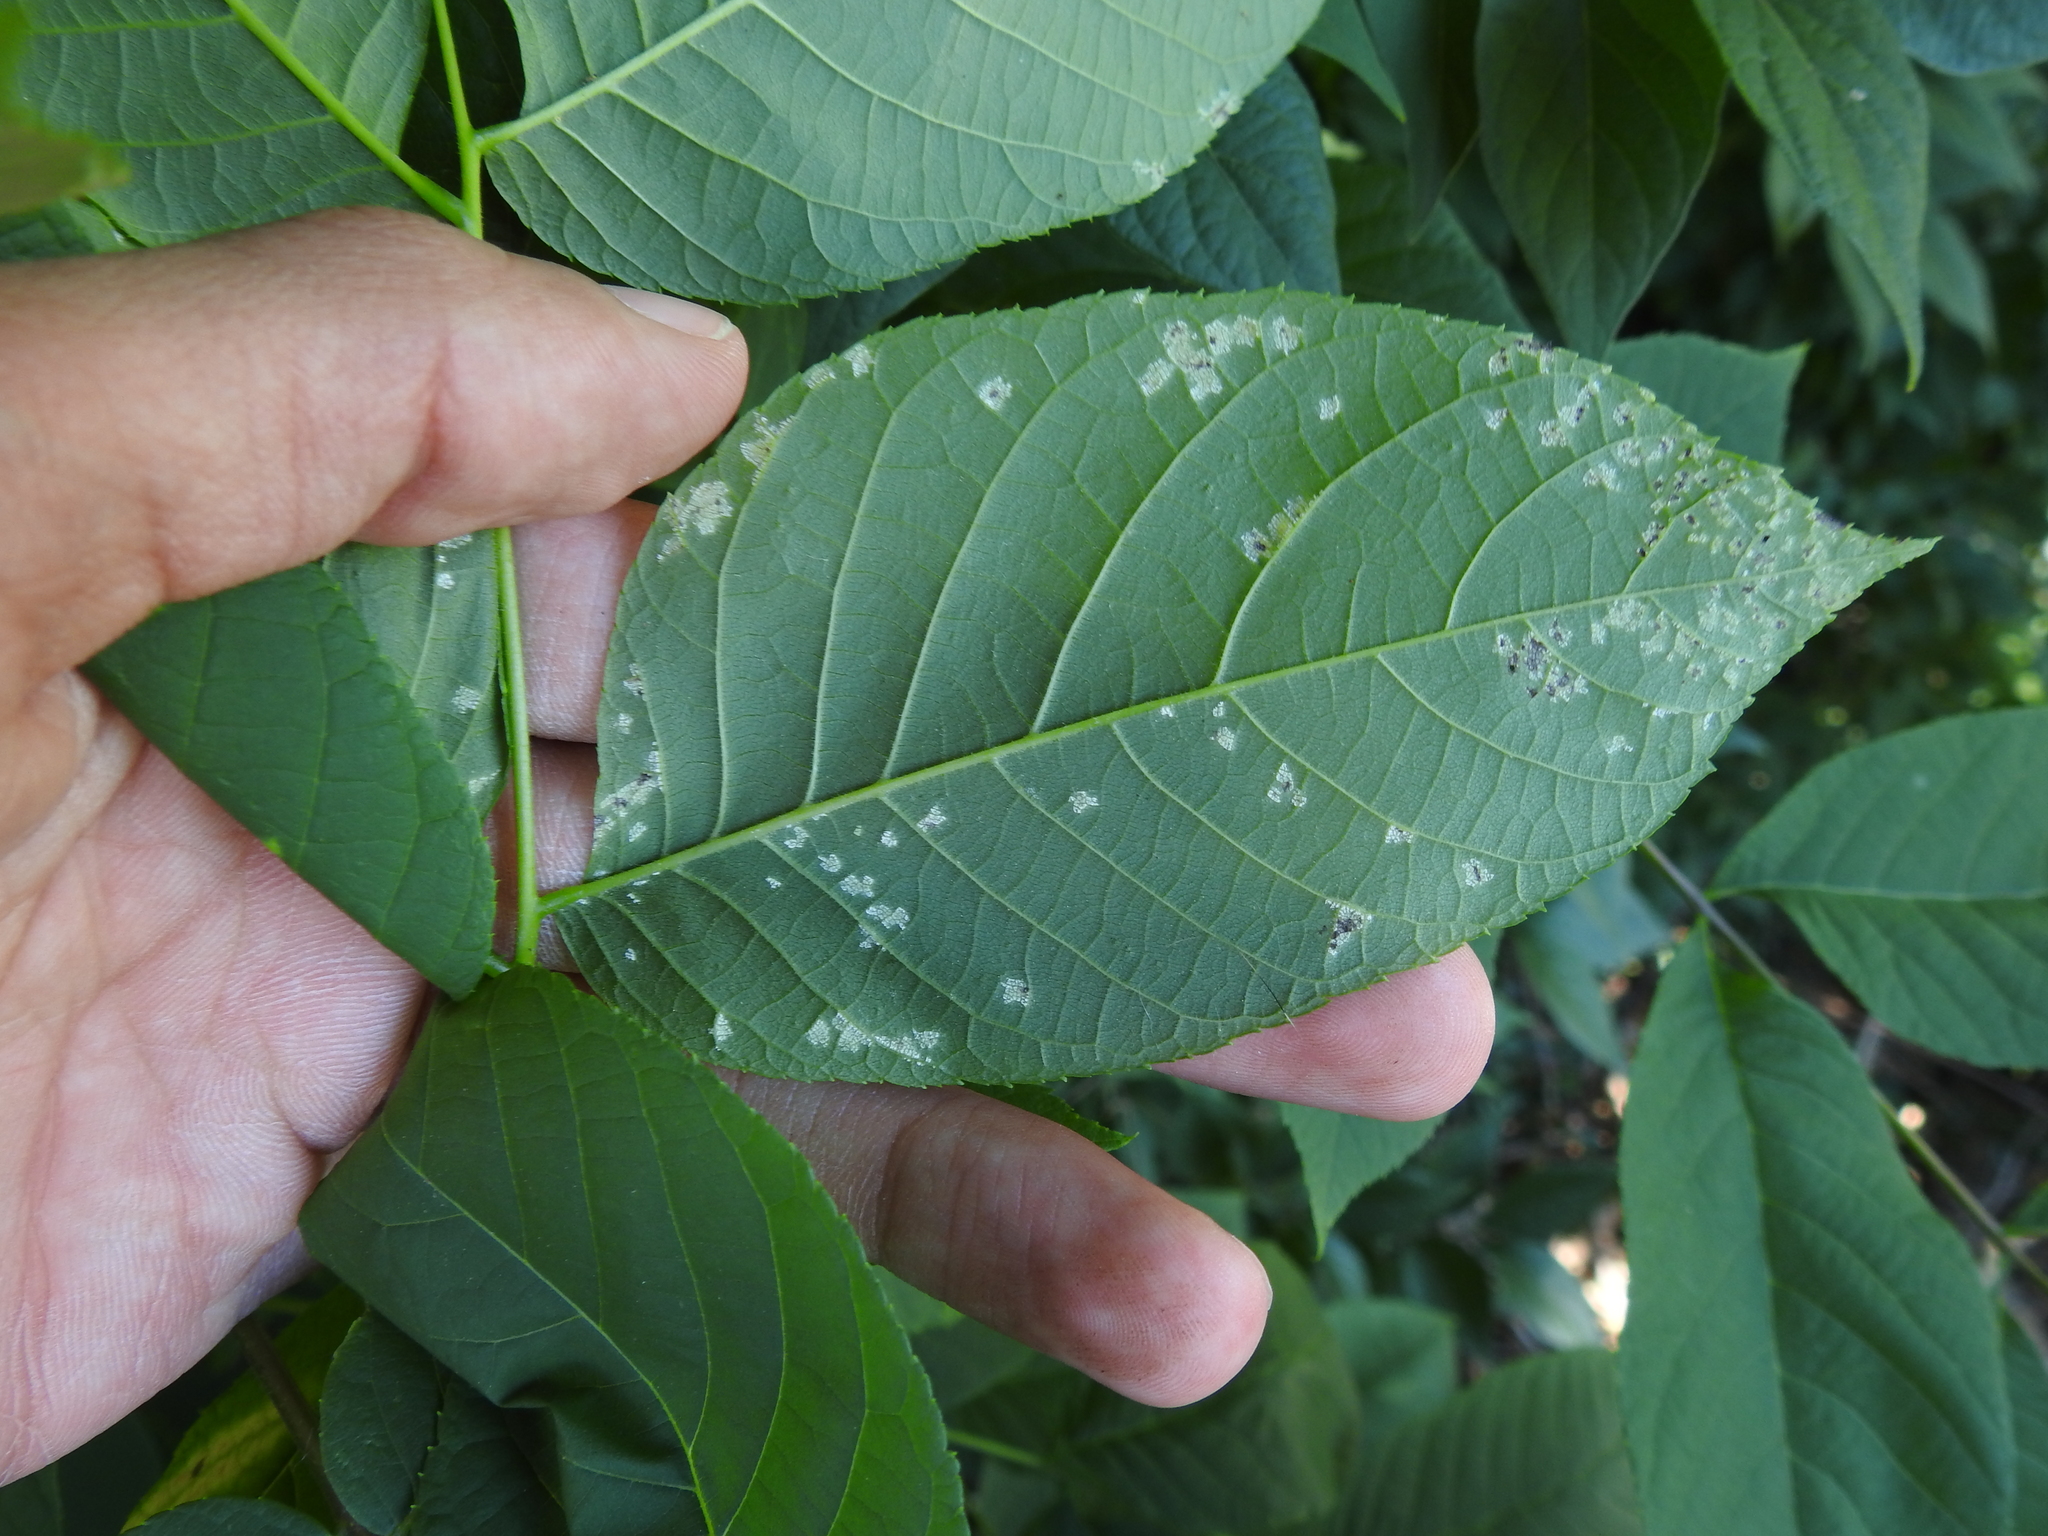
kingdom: Fungi
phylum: Basidiomycota
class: Exobasidiomycetes
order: Microstromatales
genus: Pseudomicrostroma
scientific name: Pseudomicrostroma juglandis
